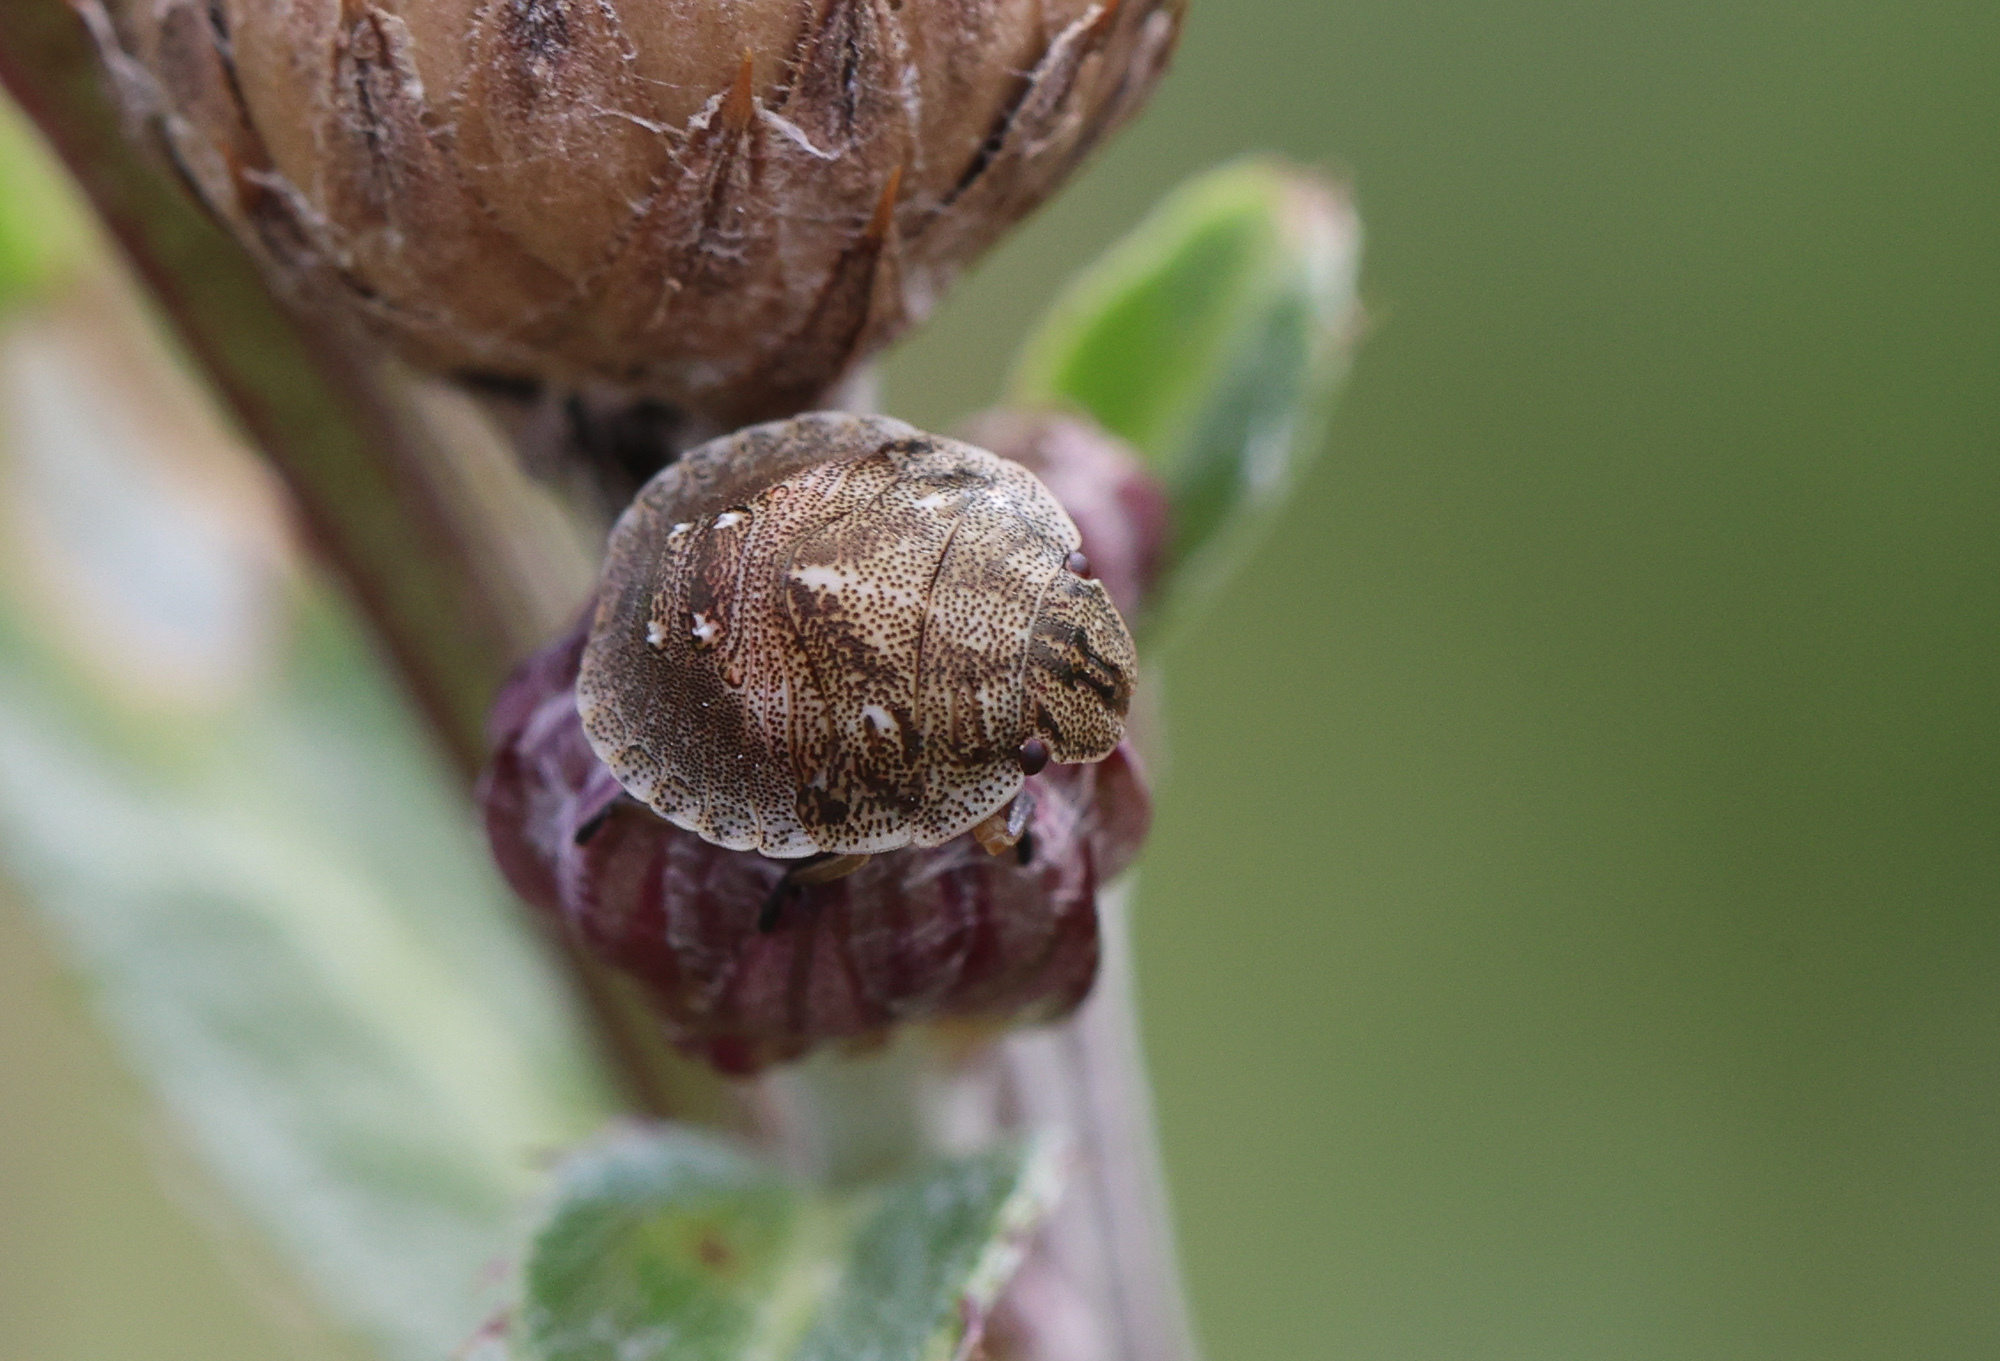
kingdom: Animalia
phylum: Arthropoda
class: Insecta
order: Hemiptera
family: Scutelleridae
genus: Eurygaster
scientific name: Eurygaster testudinaria
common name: Tortoise bug
